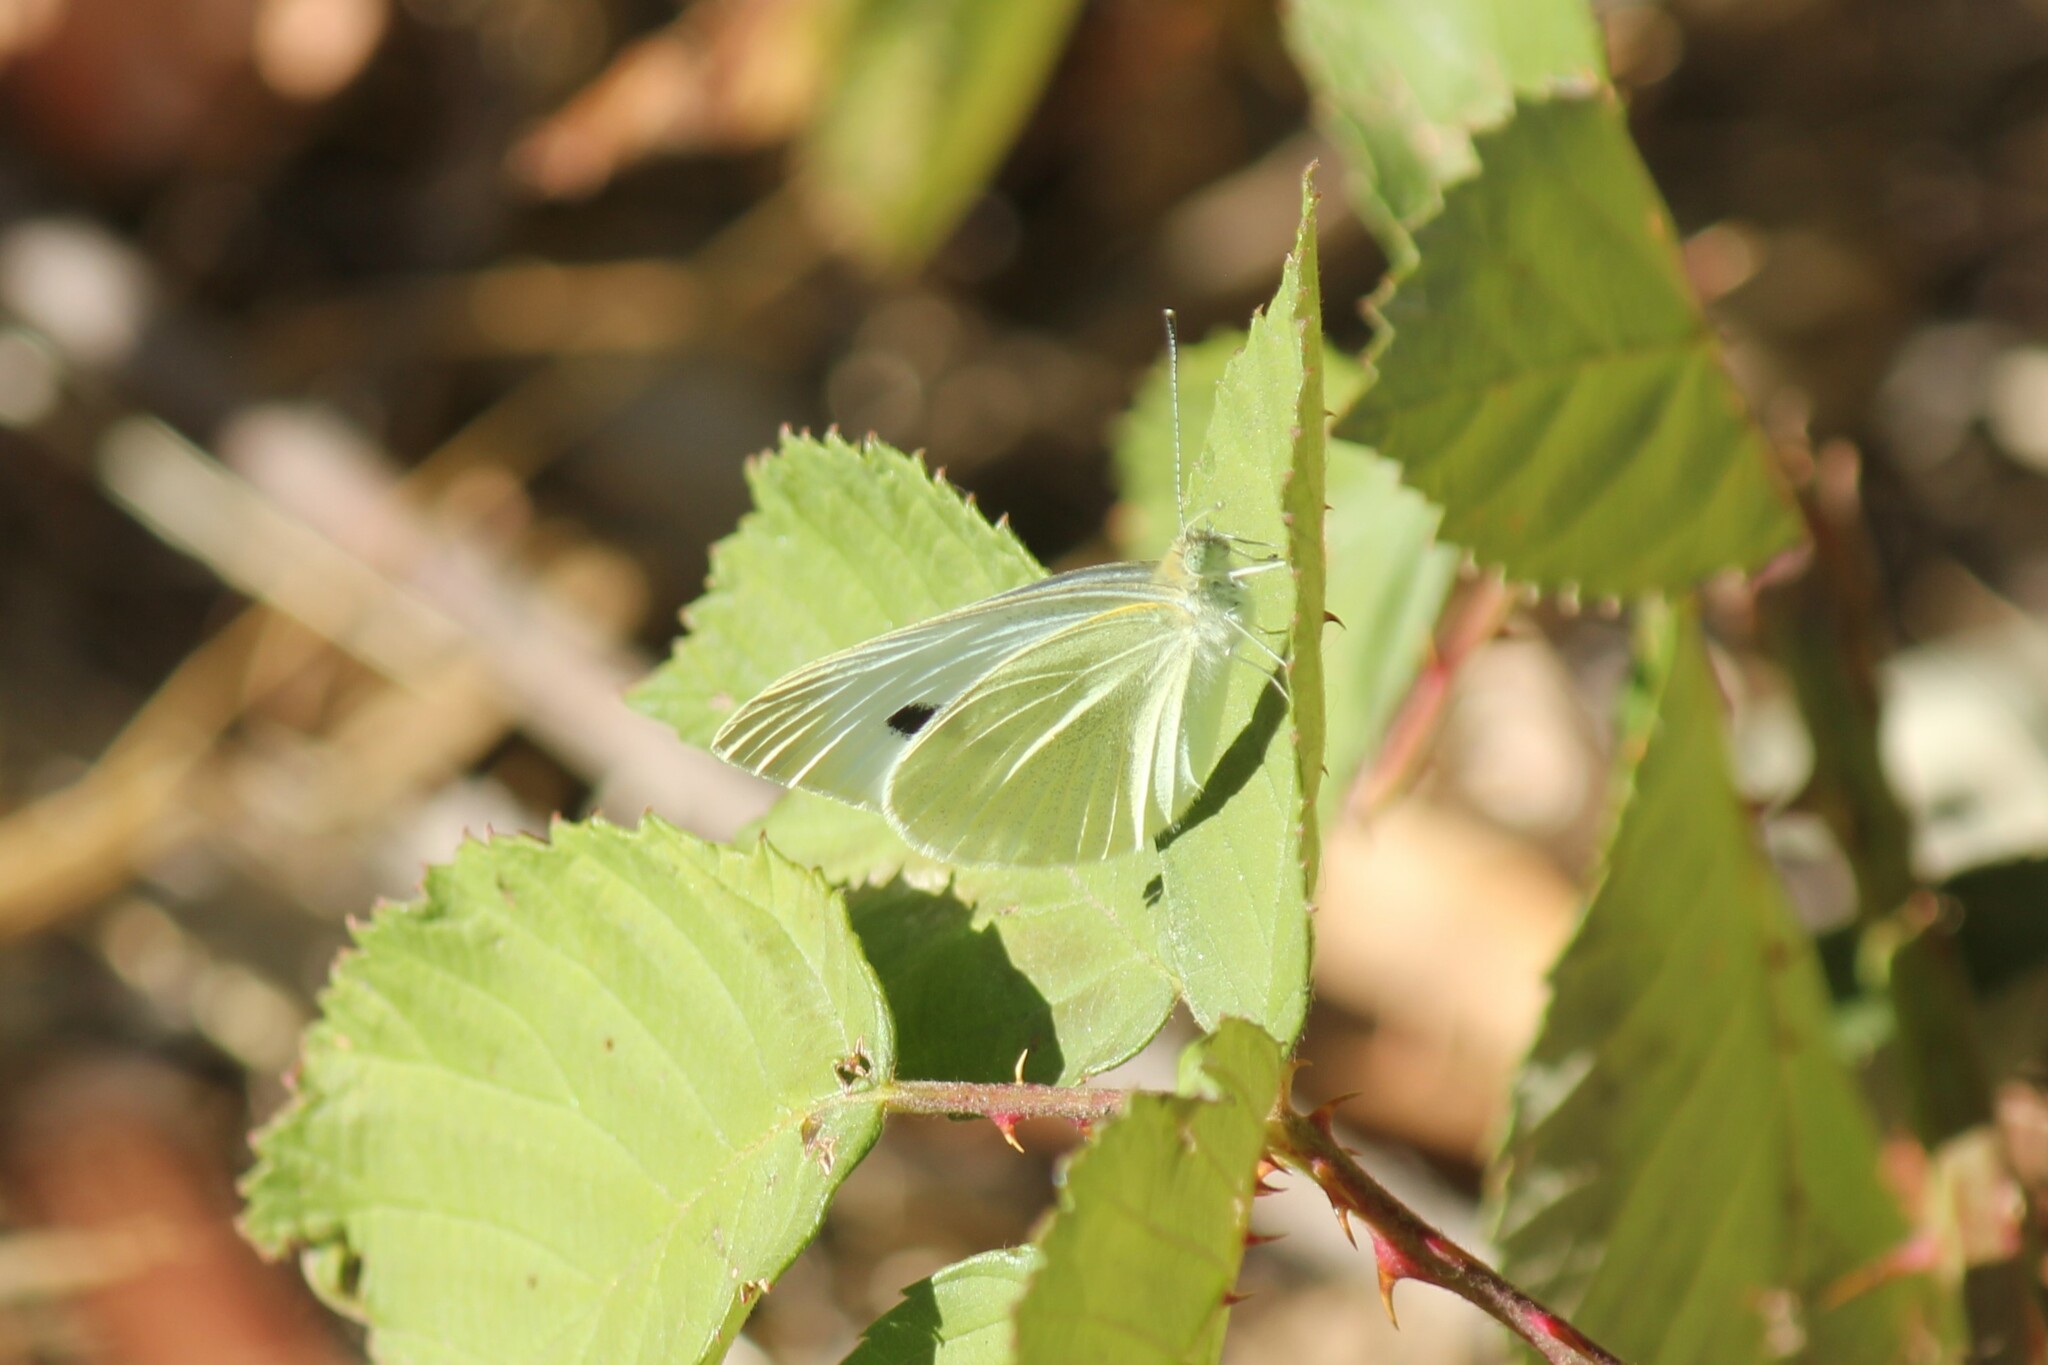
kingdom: Animalia
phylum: Arthropoda
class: Insecta
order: Lepidoptera
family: Pieridae
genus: Pieris
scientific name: Pieris rapae
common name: Small white
